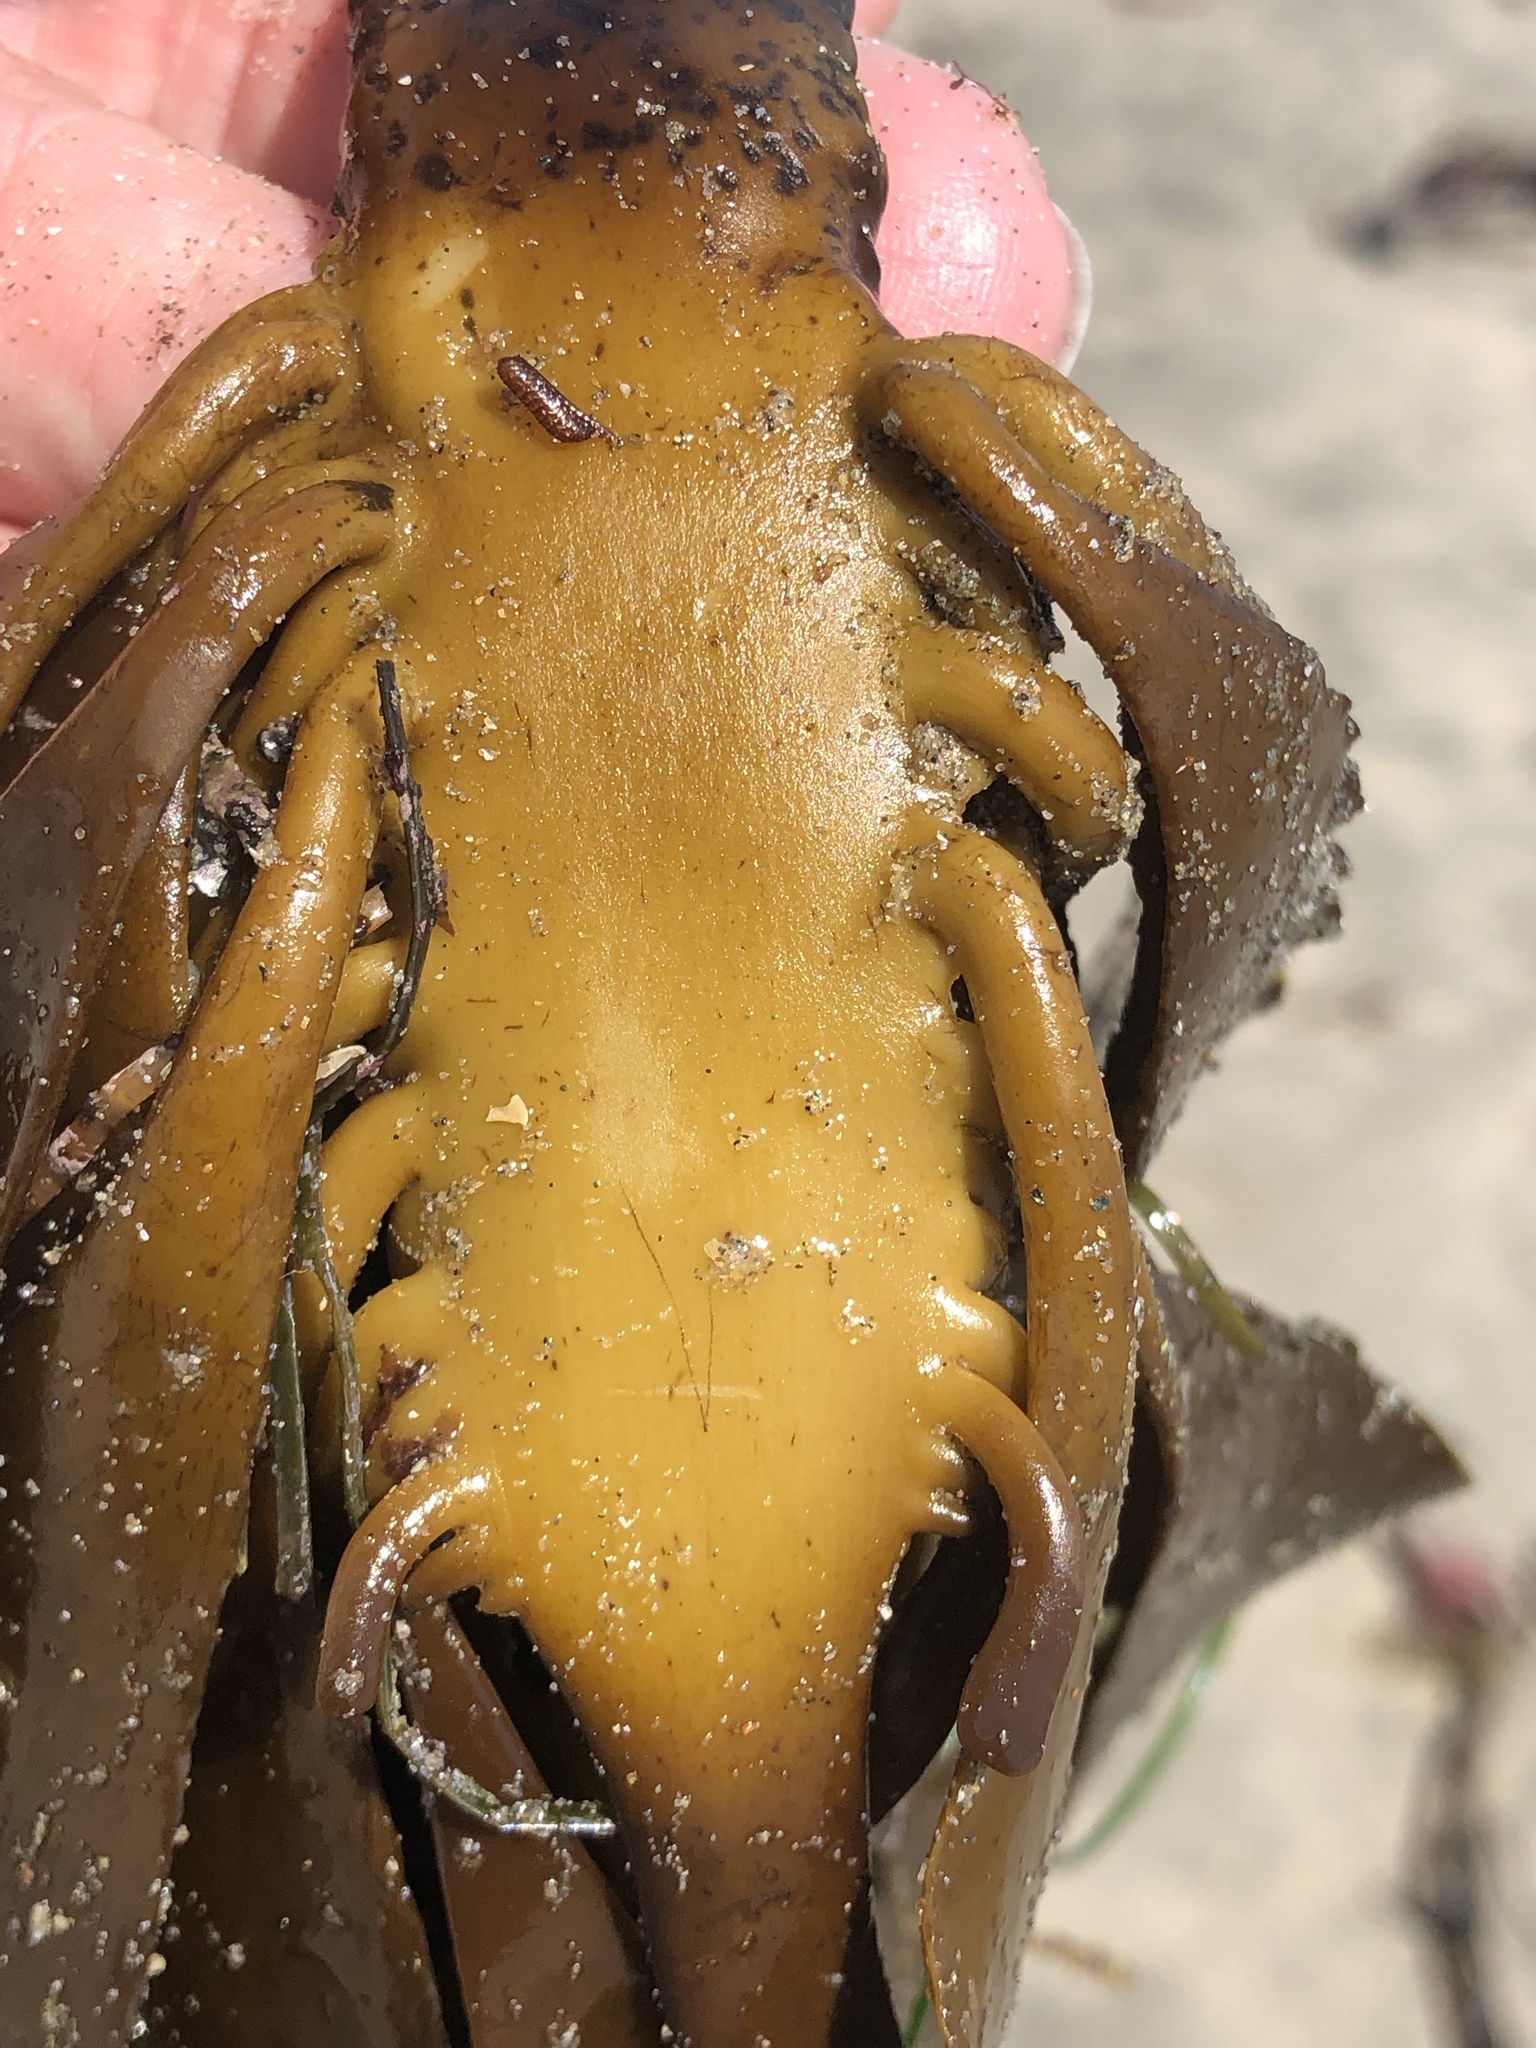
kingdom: Chromista
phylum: Ochrophyta
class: Phaeophyceae
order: Laminariales
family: Alariaceae
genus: Pterygophora
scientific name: Pterygophora californica
